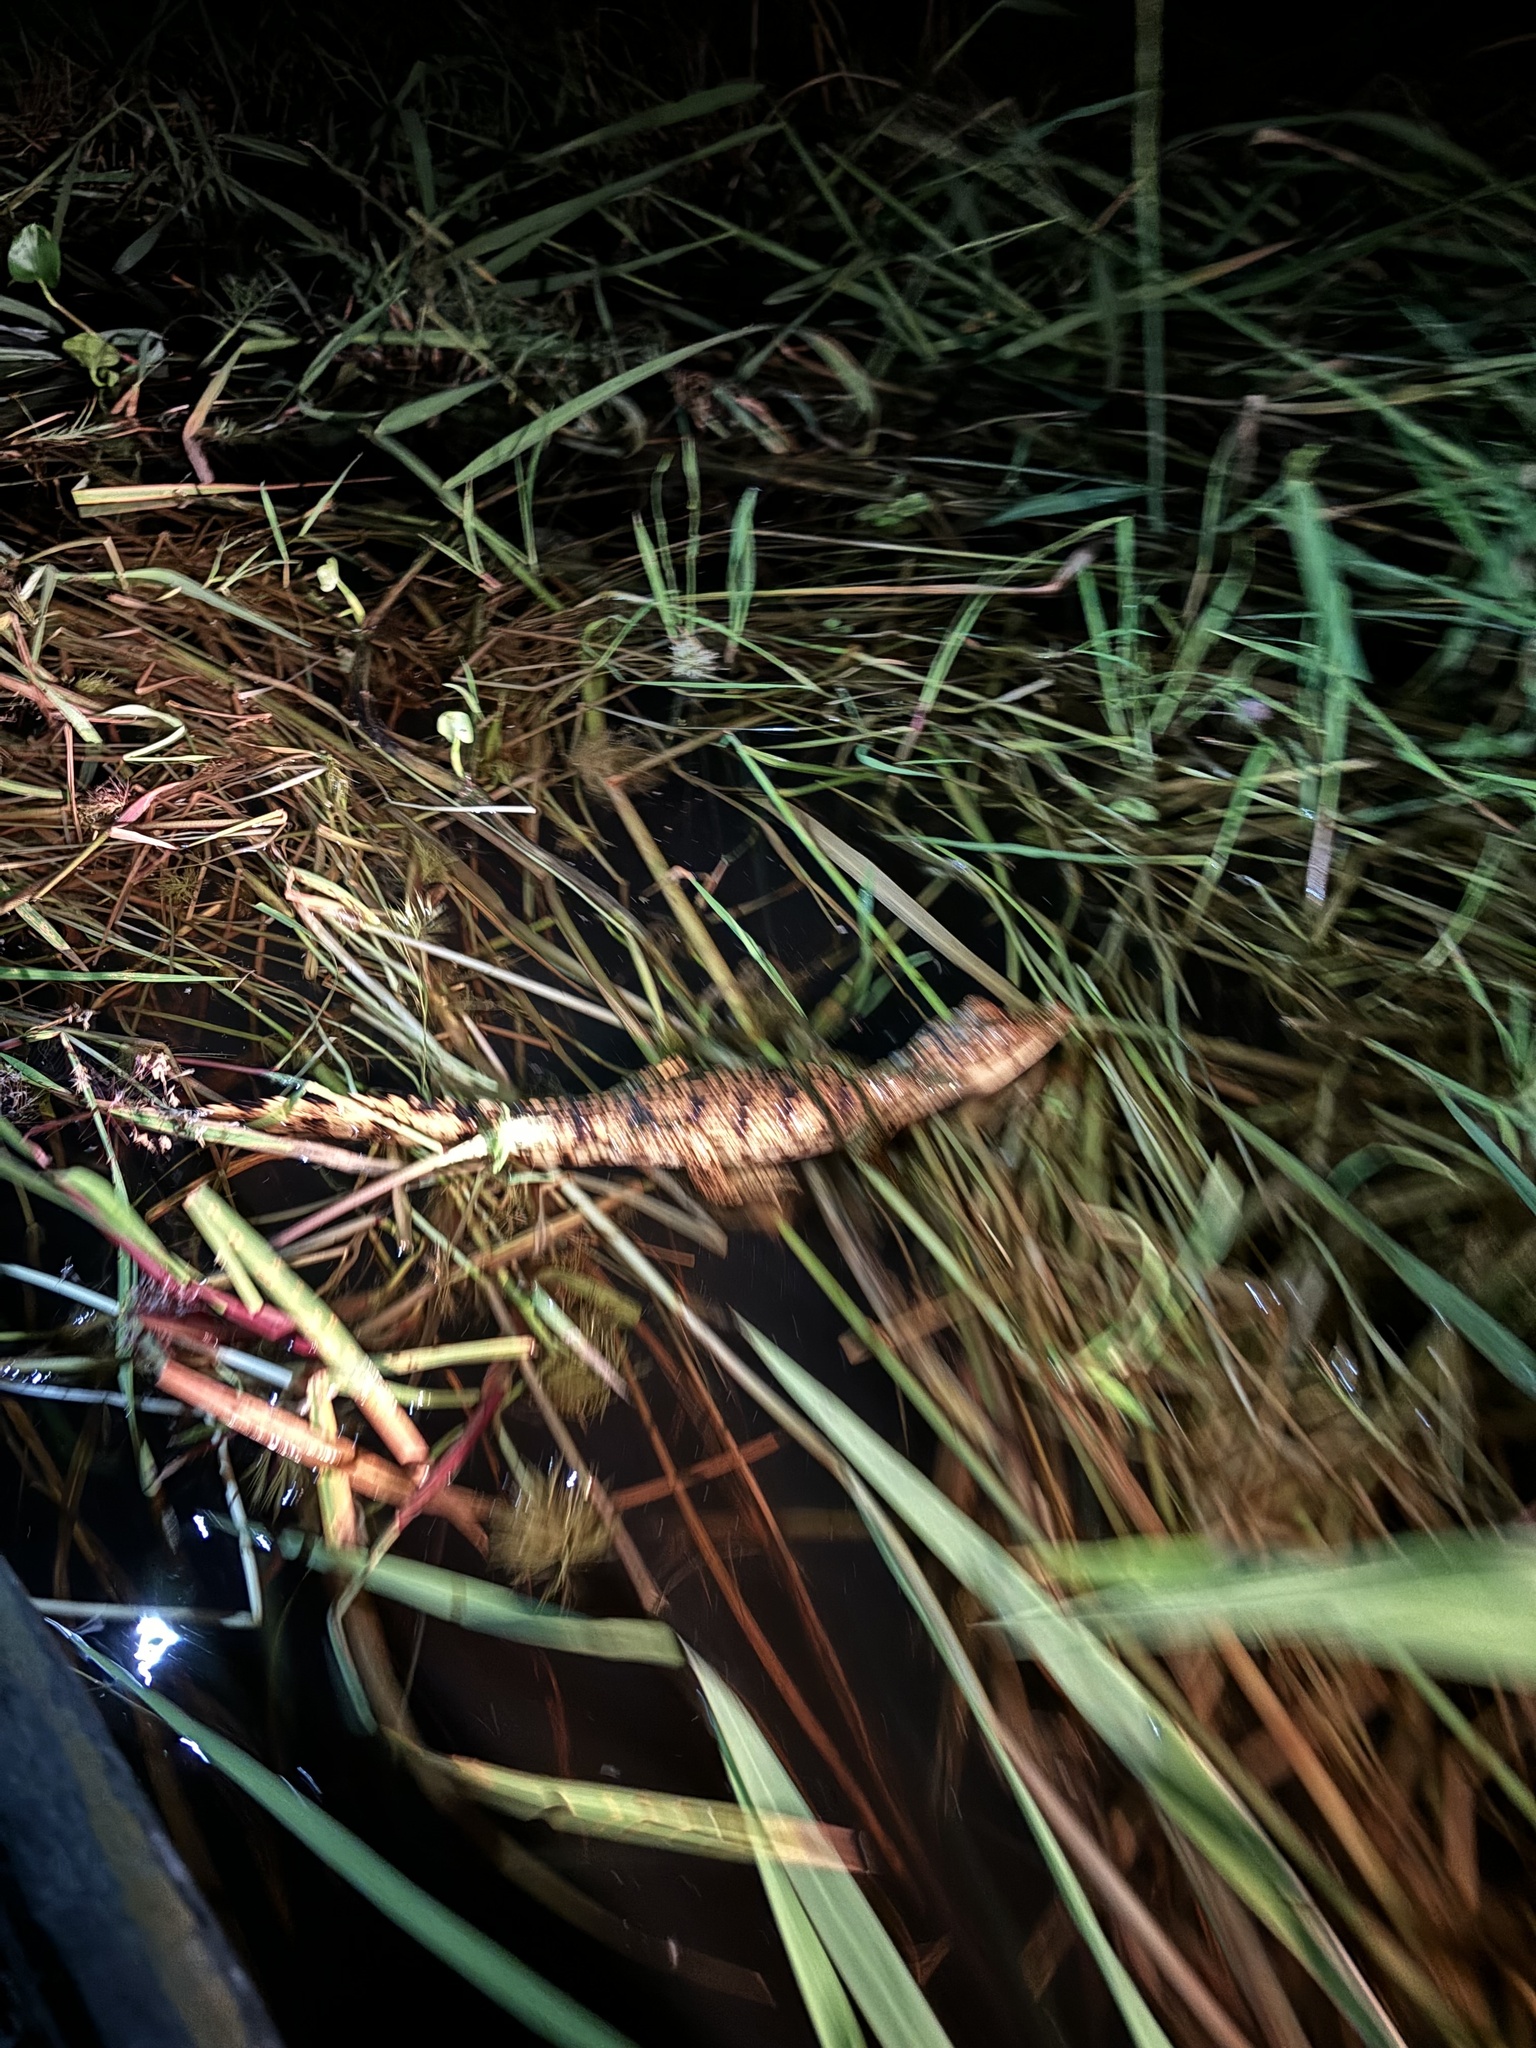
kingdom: Animalia
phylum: Chordata
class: Crocodylia
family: Alligatoridae
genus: Caiman
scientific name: Caiman crocodilus
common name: Common caiman
